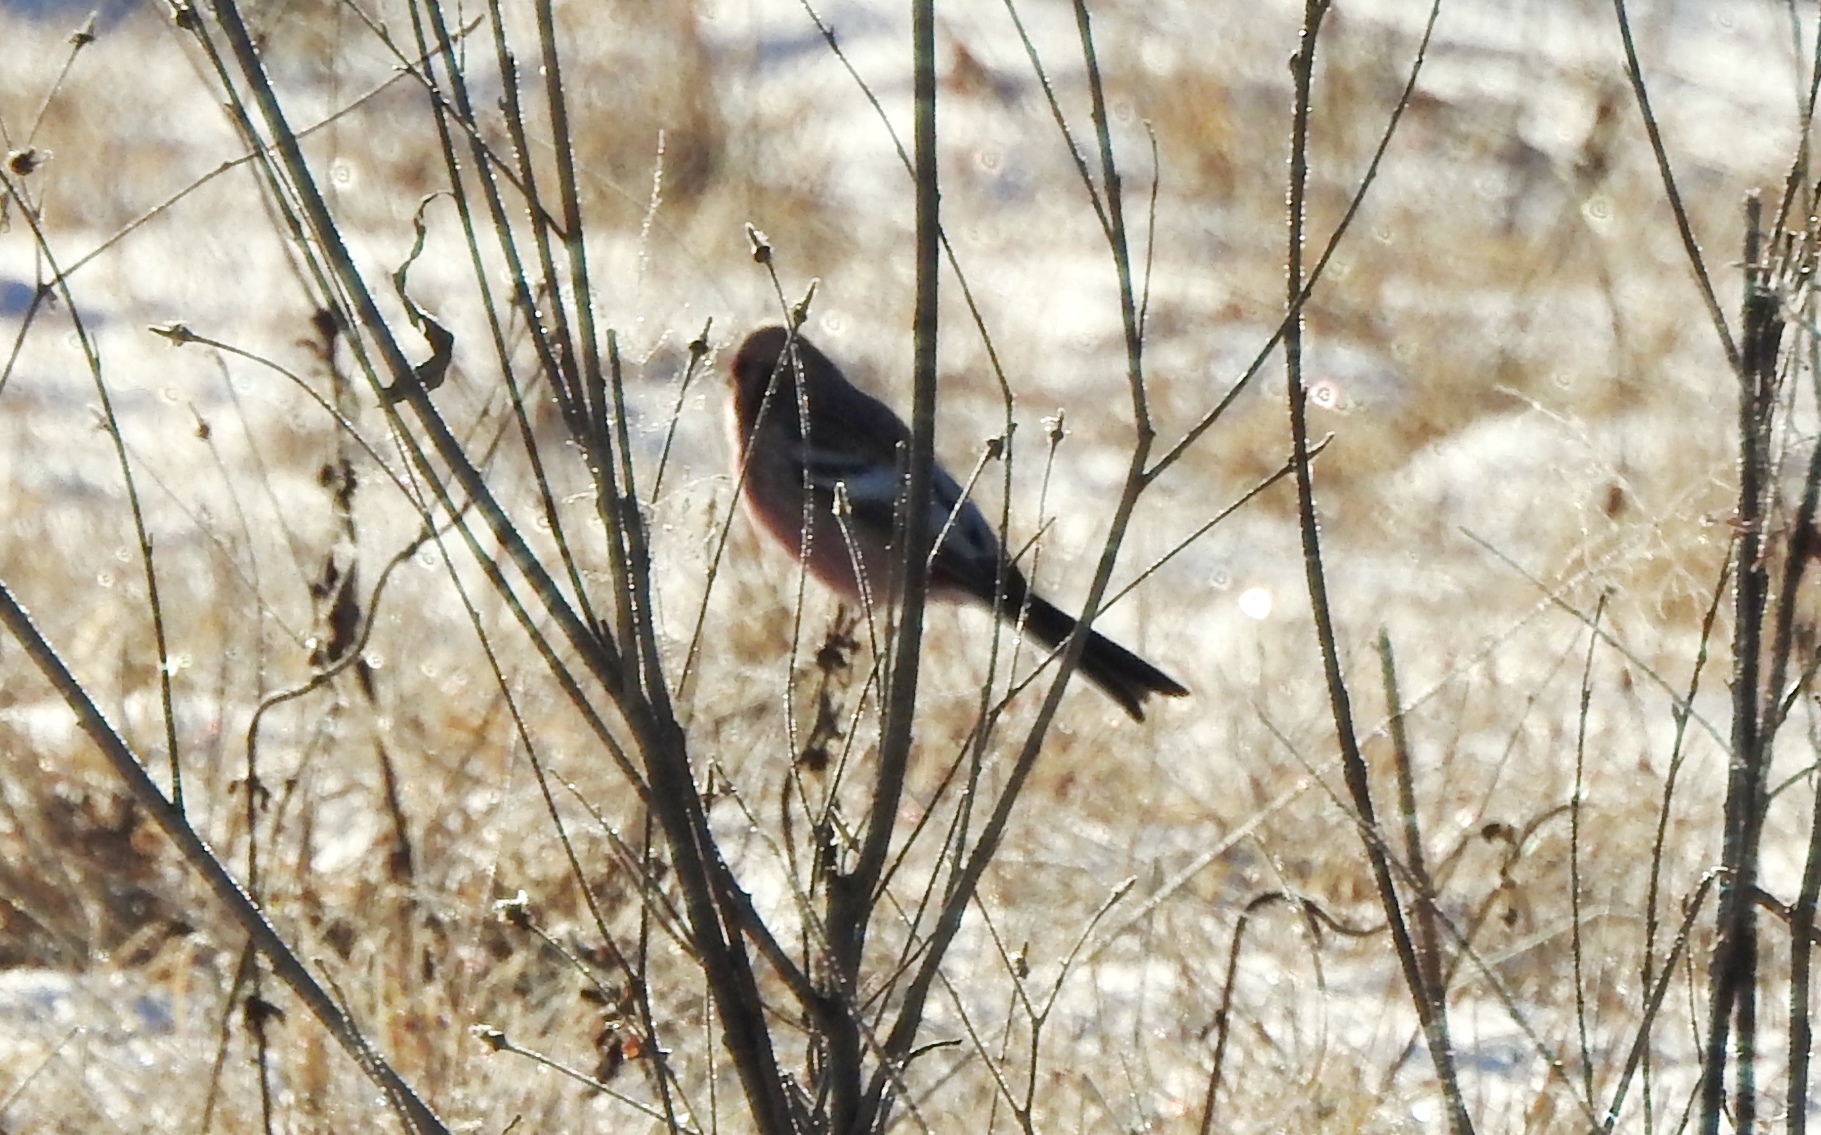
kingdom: Animalia
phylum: Chordata
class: Aves
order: Passeriformes
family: Fringillidae
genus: Carpodacus
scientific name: Carpodacus sibiricus
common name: Long-tailed rosefinch
